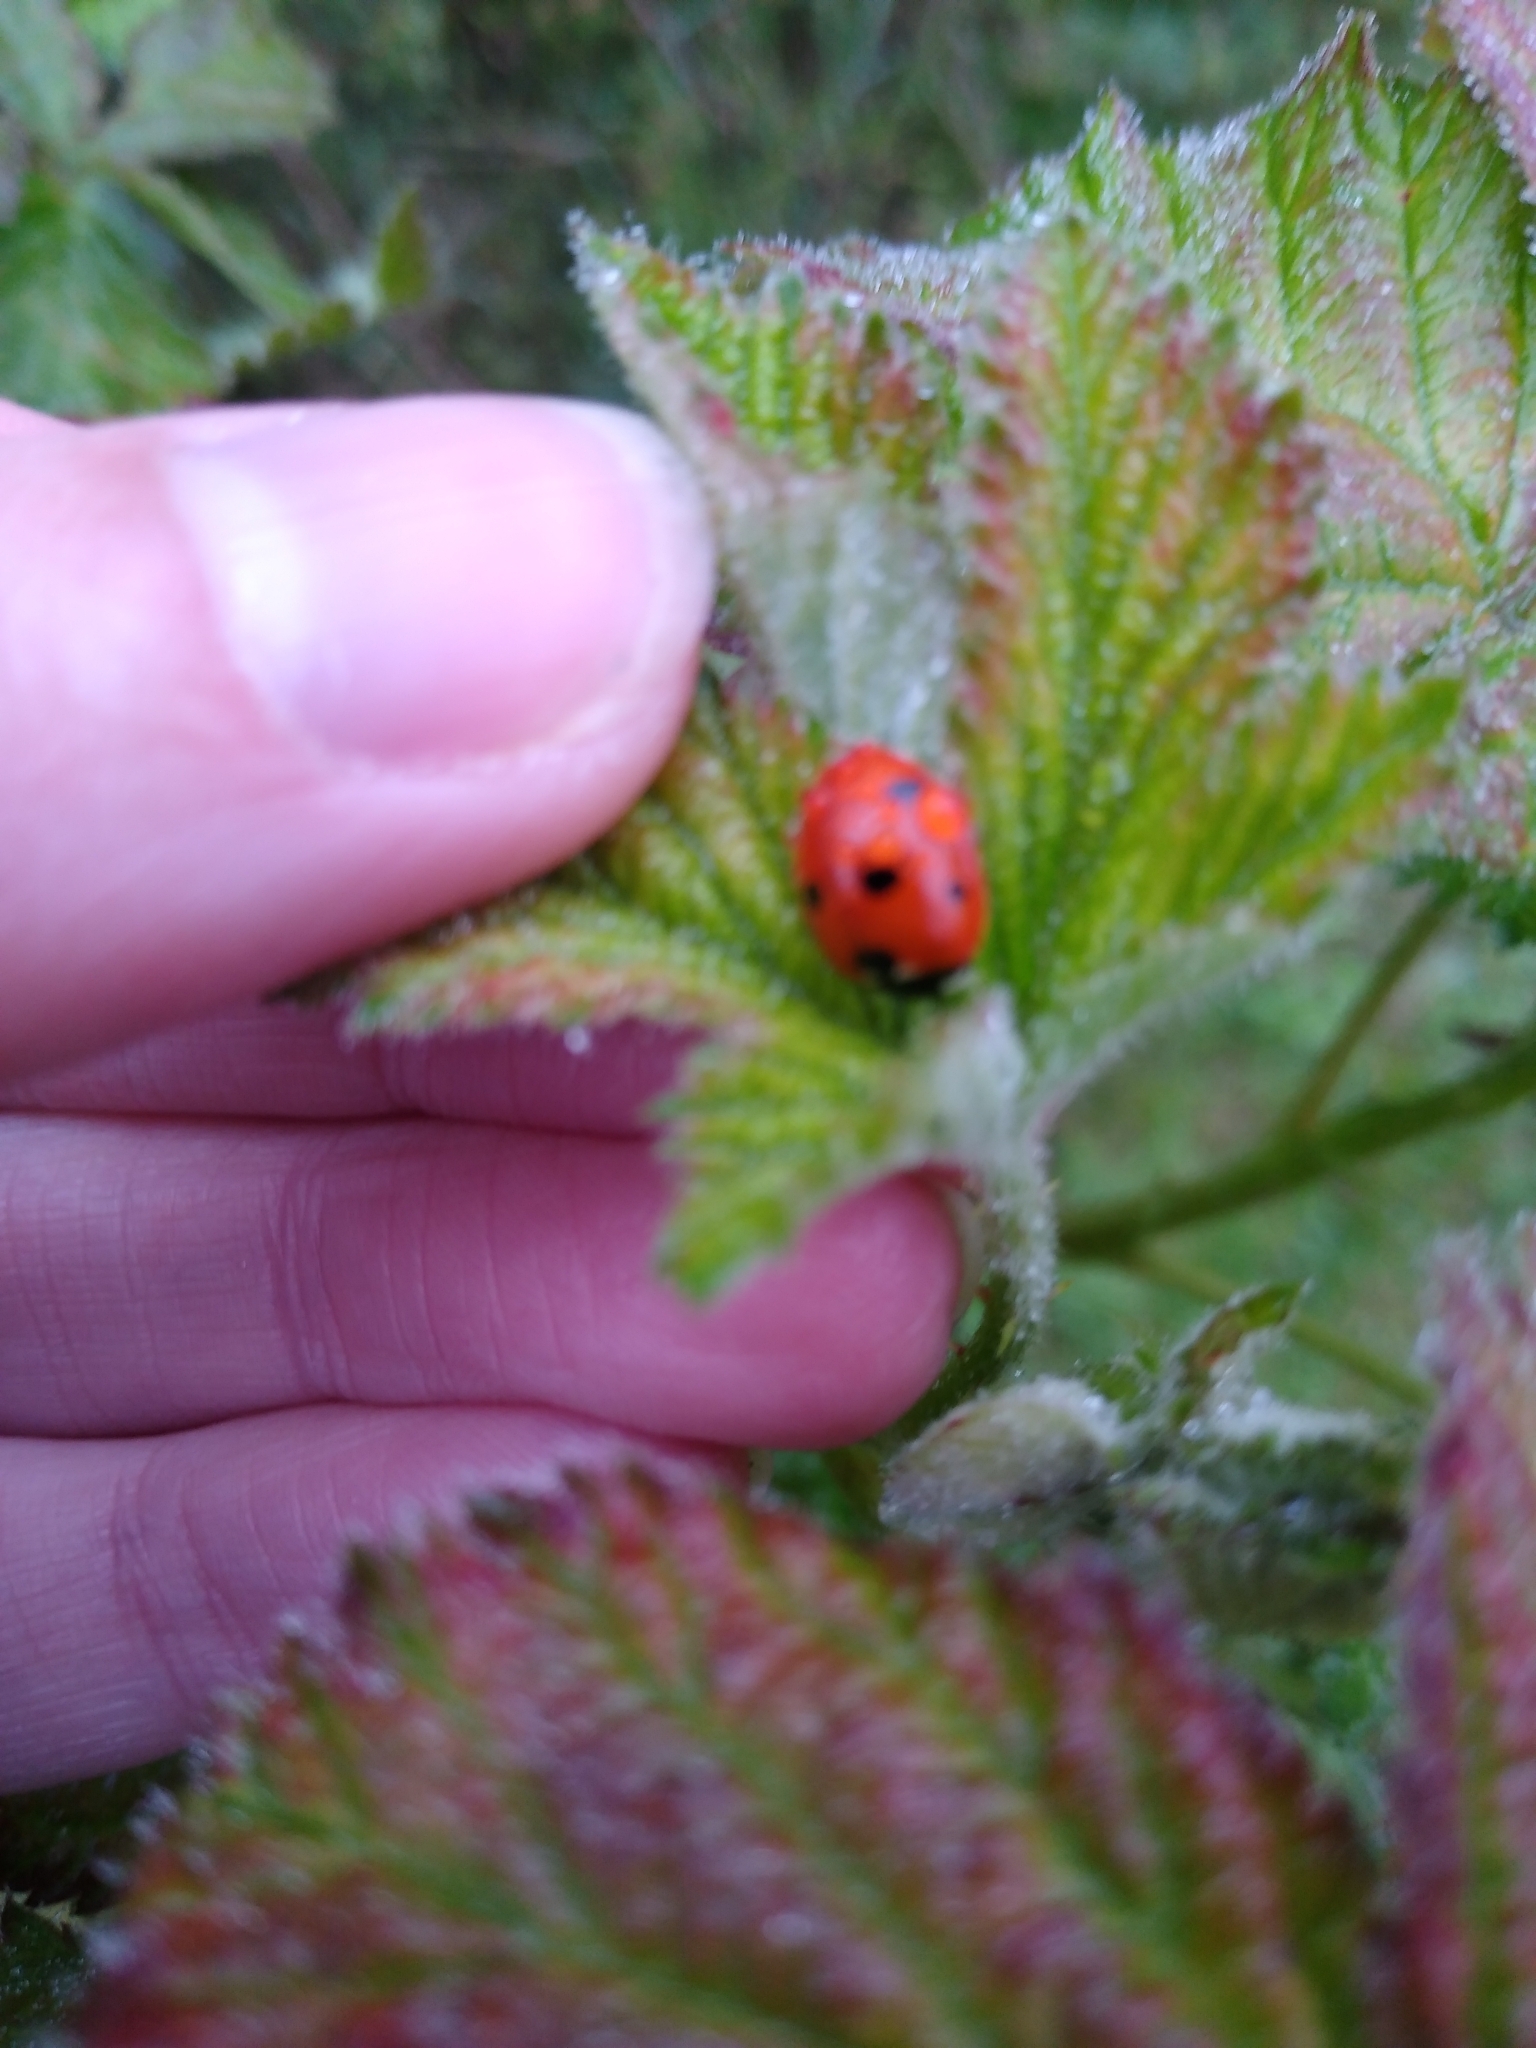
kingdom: Animalia
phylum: Arthropoda
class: Insecta
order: Coleoptera
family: Coccinellidae
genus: Coccinella
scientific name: Coccinella septempunctata
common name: Sevenspotted lady beetle
